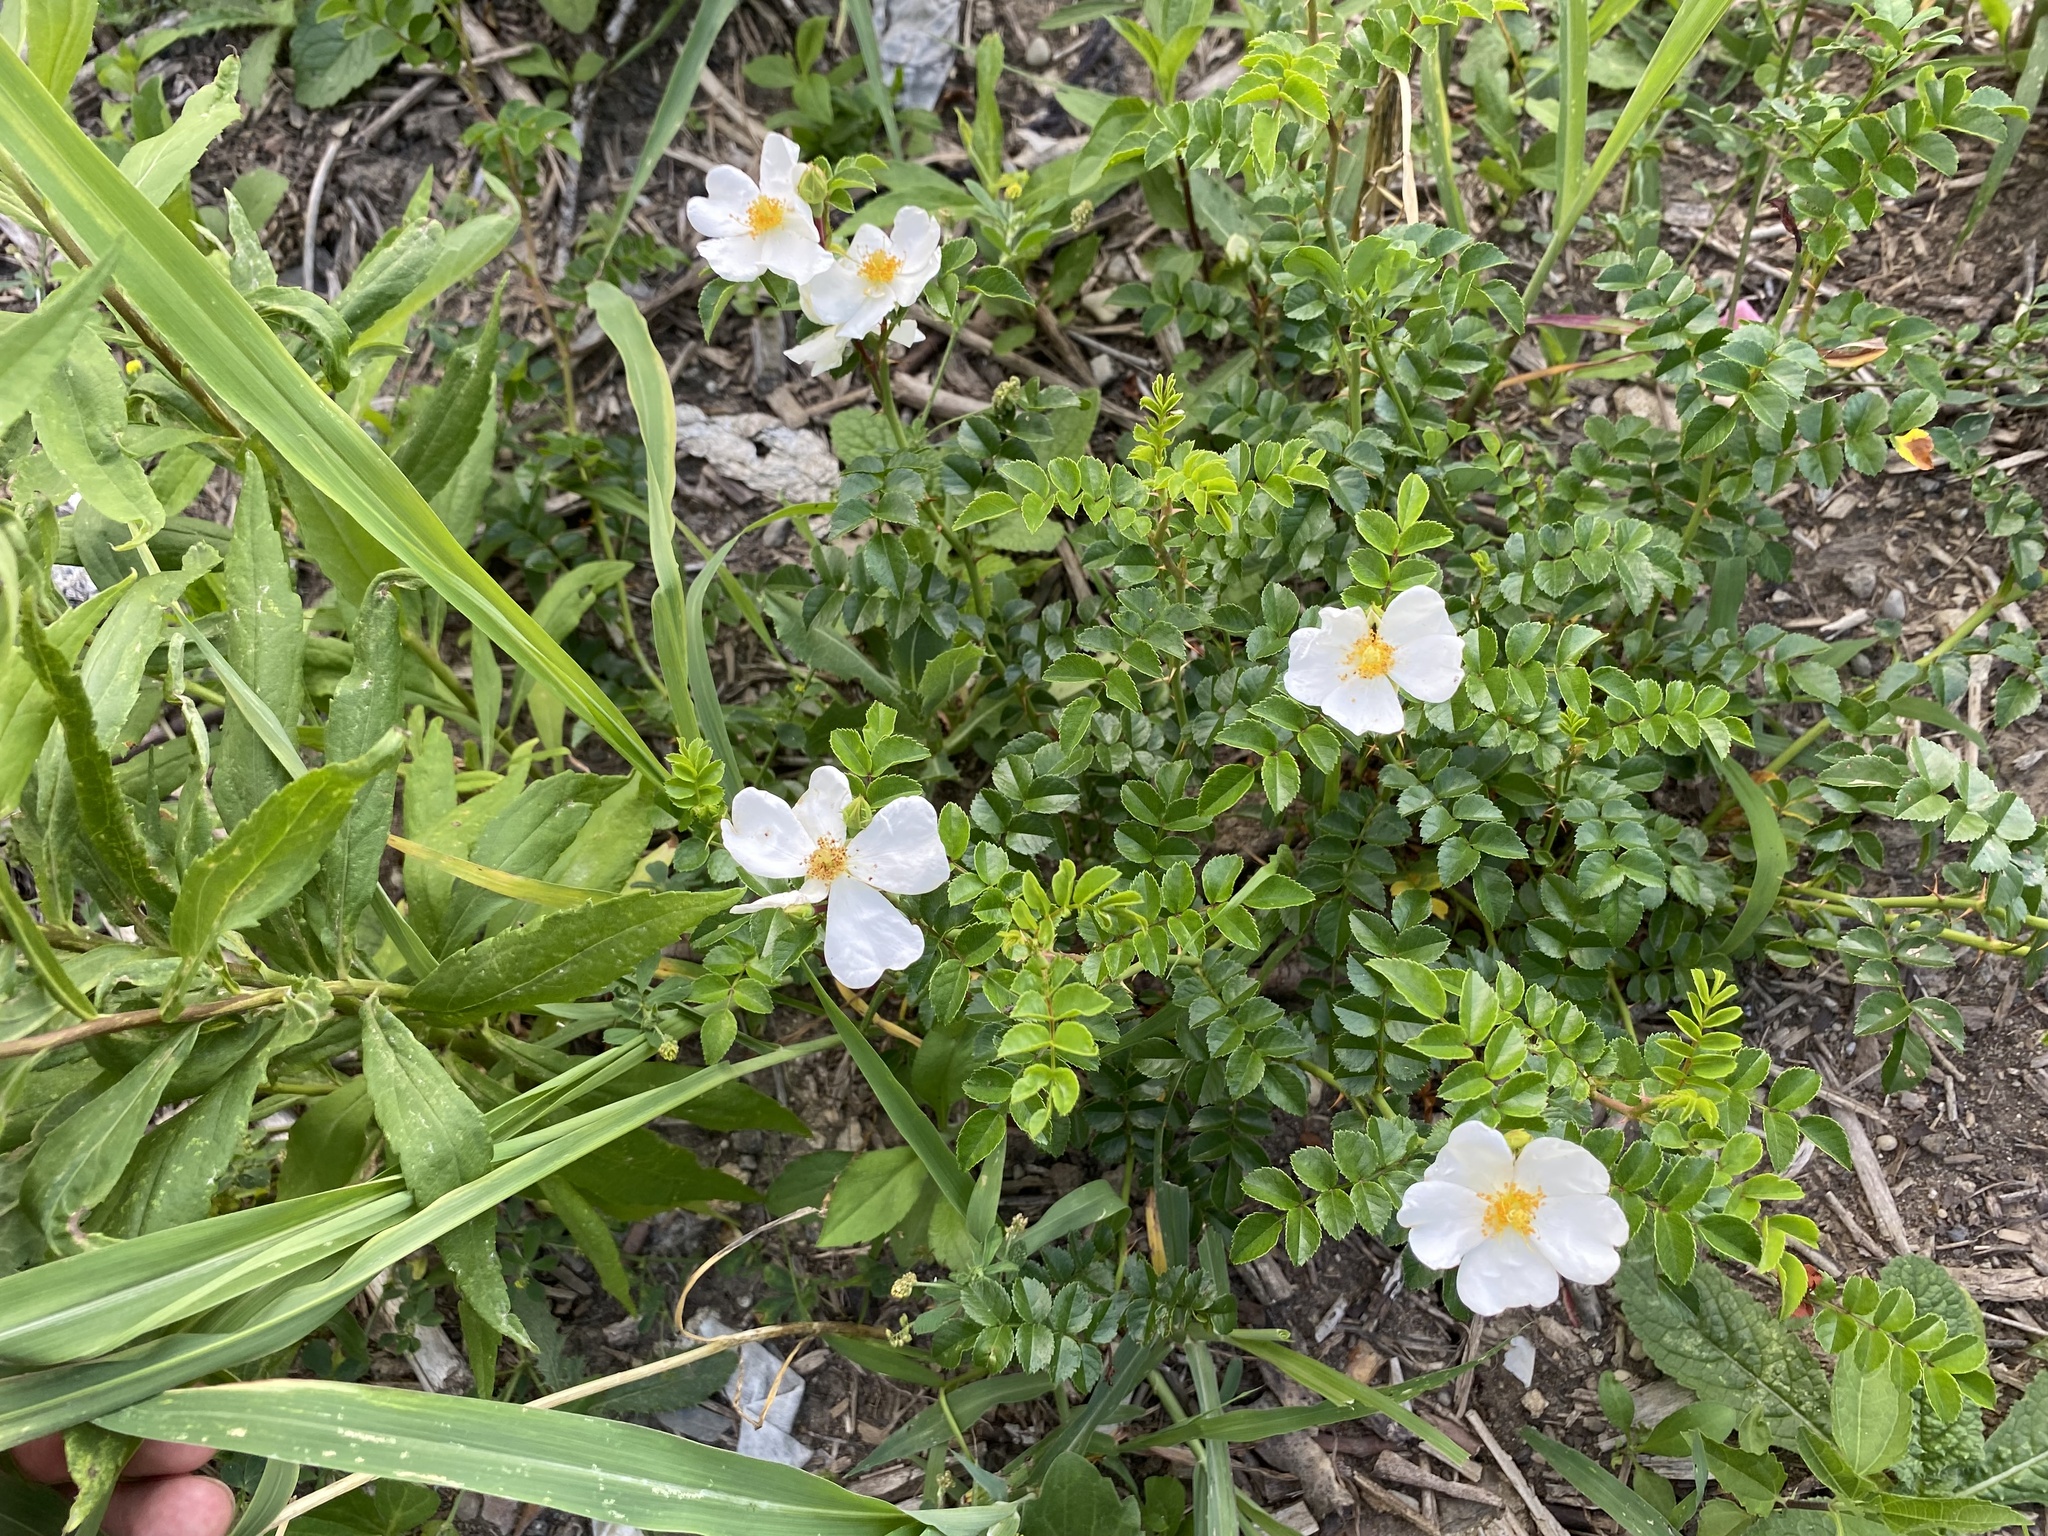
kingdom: Plantae
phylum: Tracheophyta
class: Magnoliopsida
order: Rosales
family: Rosaceae
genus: Rosa
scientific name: Rosa lucieae
